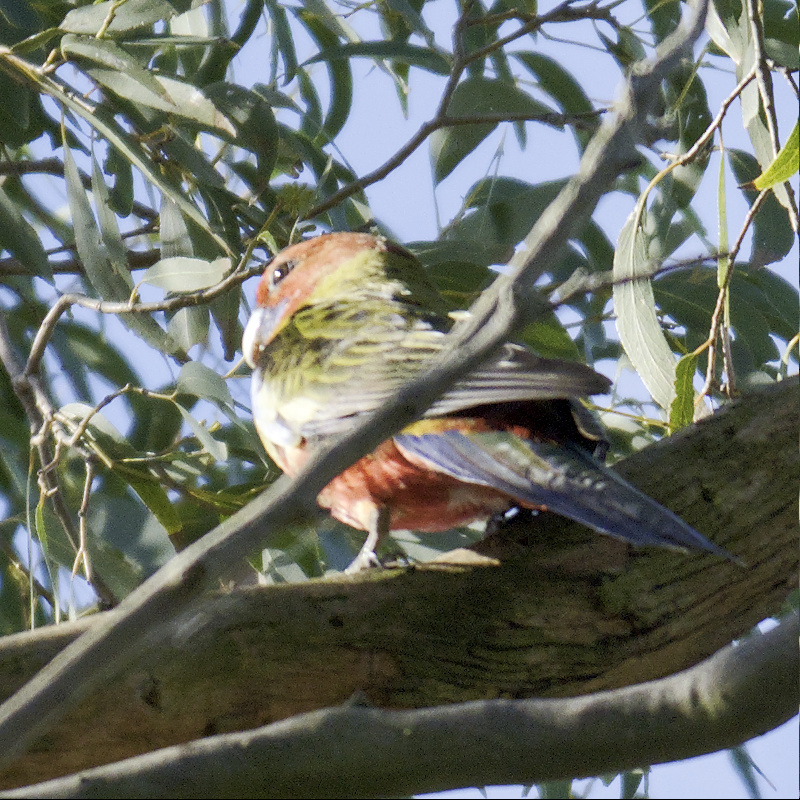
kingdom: Animalia
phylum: Chordata
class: Aves
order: Psittaciformes
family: Psittacidae
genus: Platycercus
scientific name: Platycercus elegans
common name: Crimson rosella
